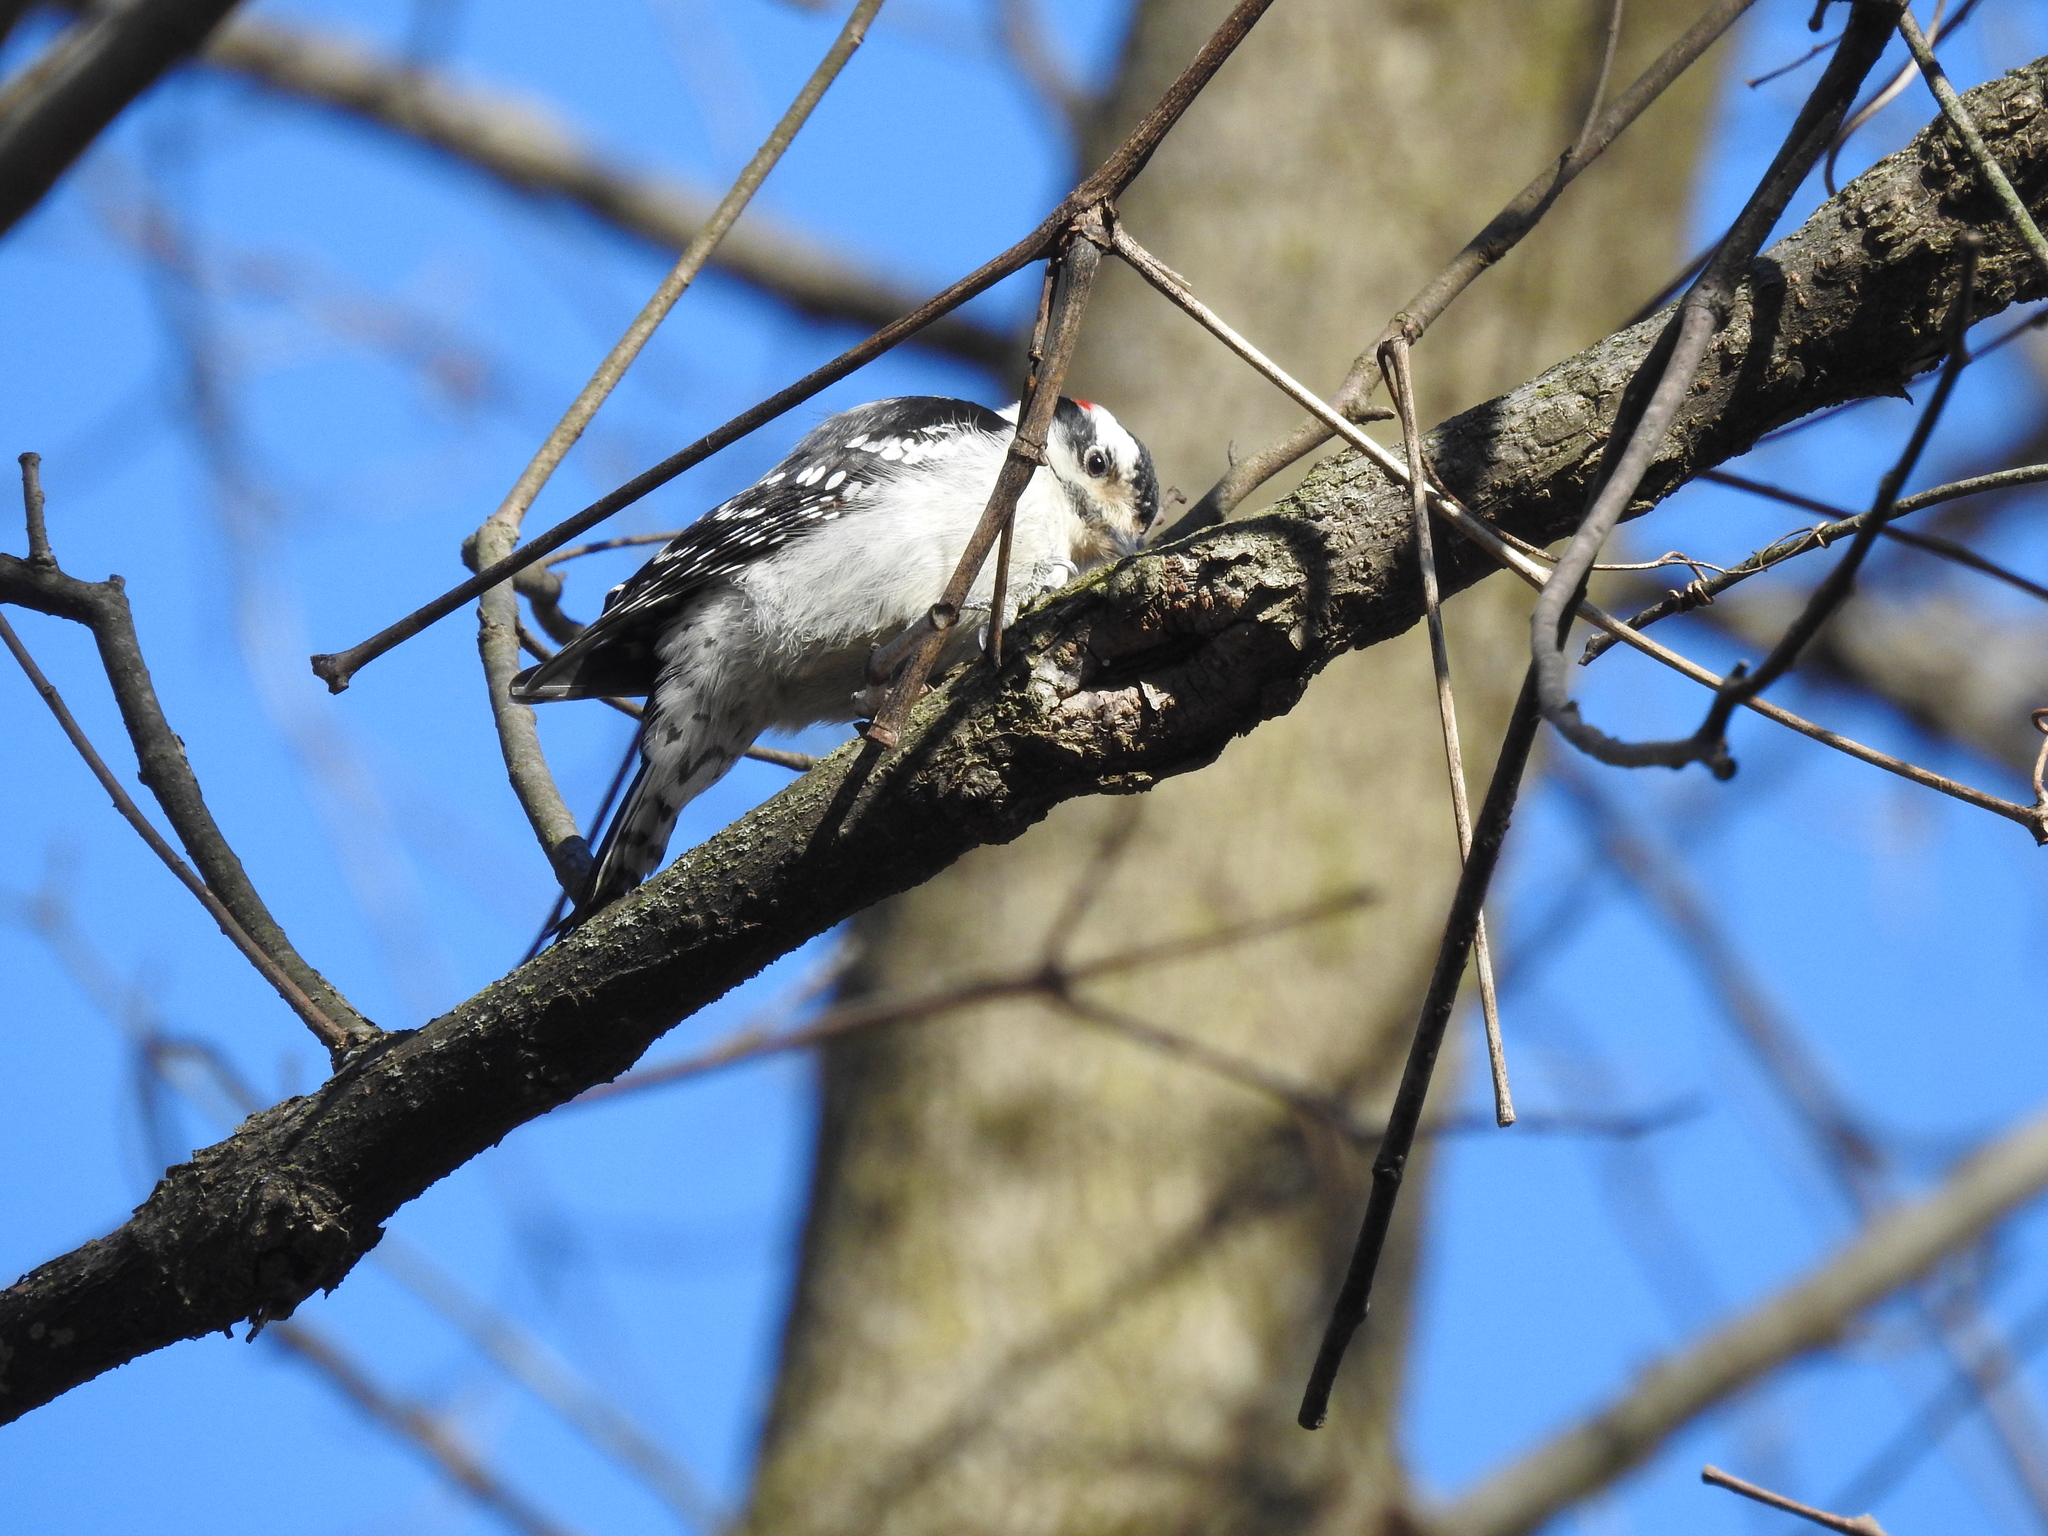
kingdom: Animalia
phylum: Chordata
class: Aves
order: Piciformes
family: Picidae
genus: Dryobates
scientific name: Dryobates pubescens
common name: Downy woodpecker
